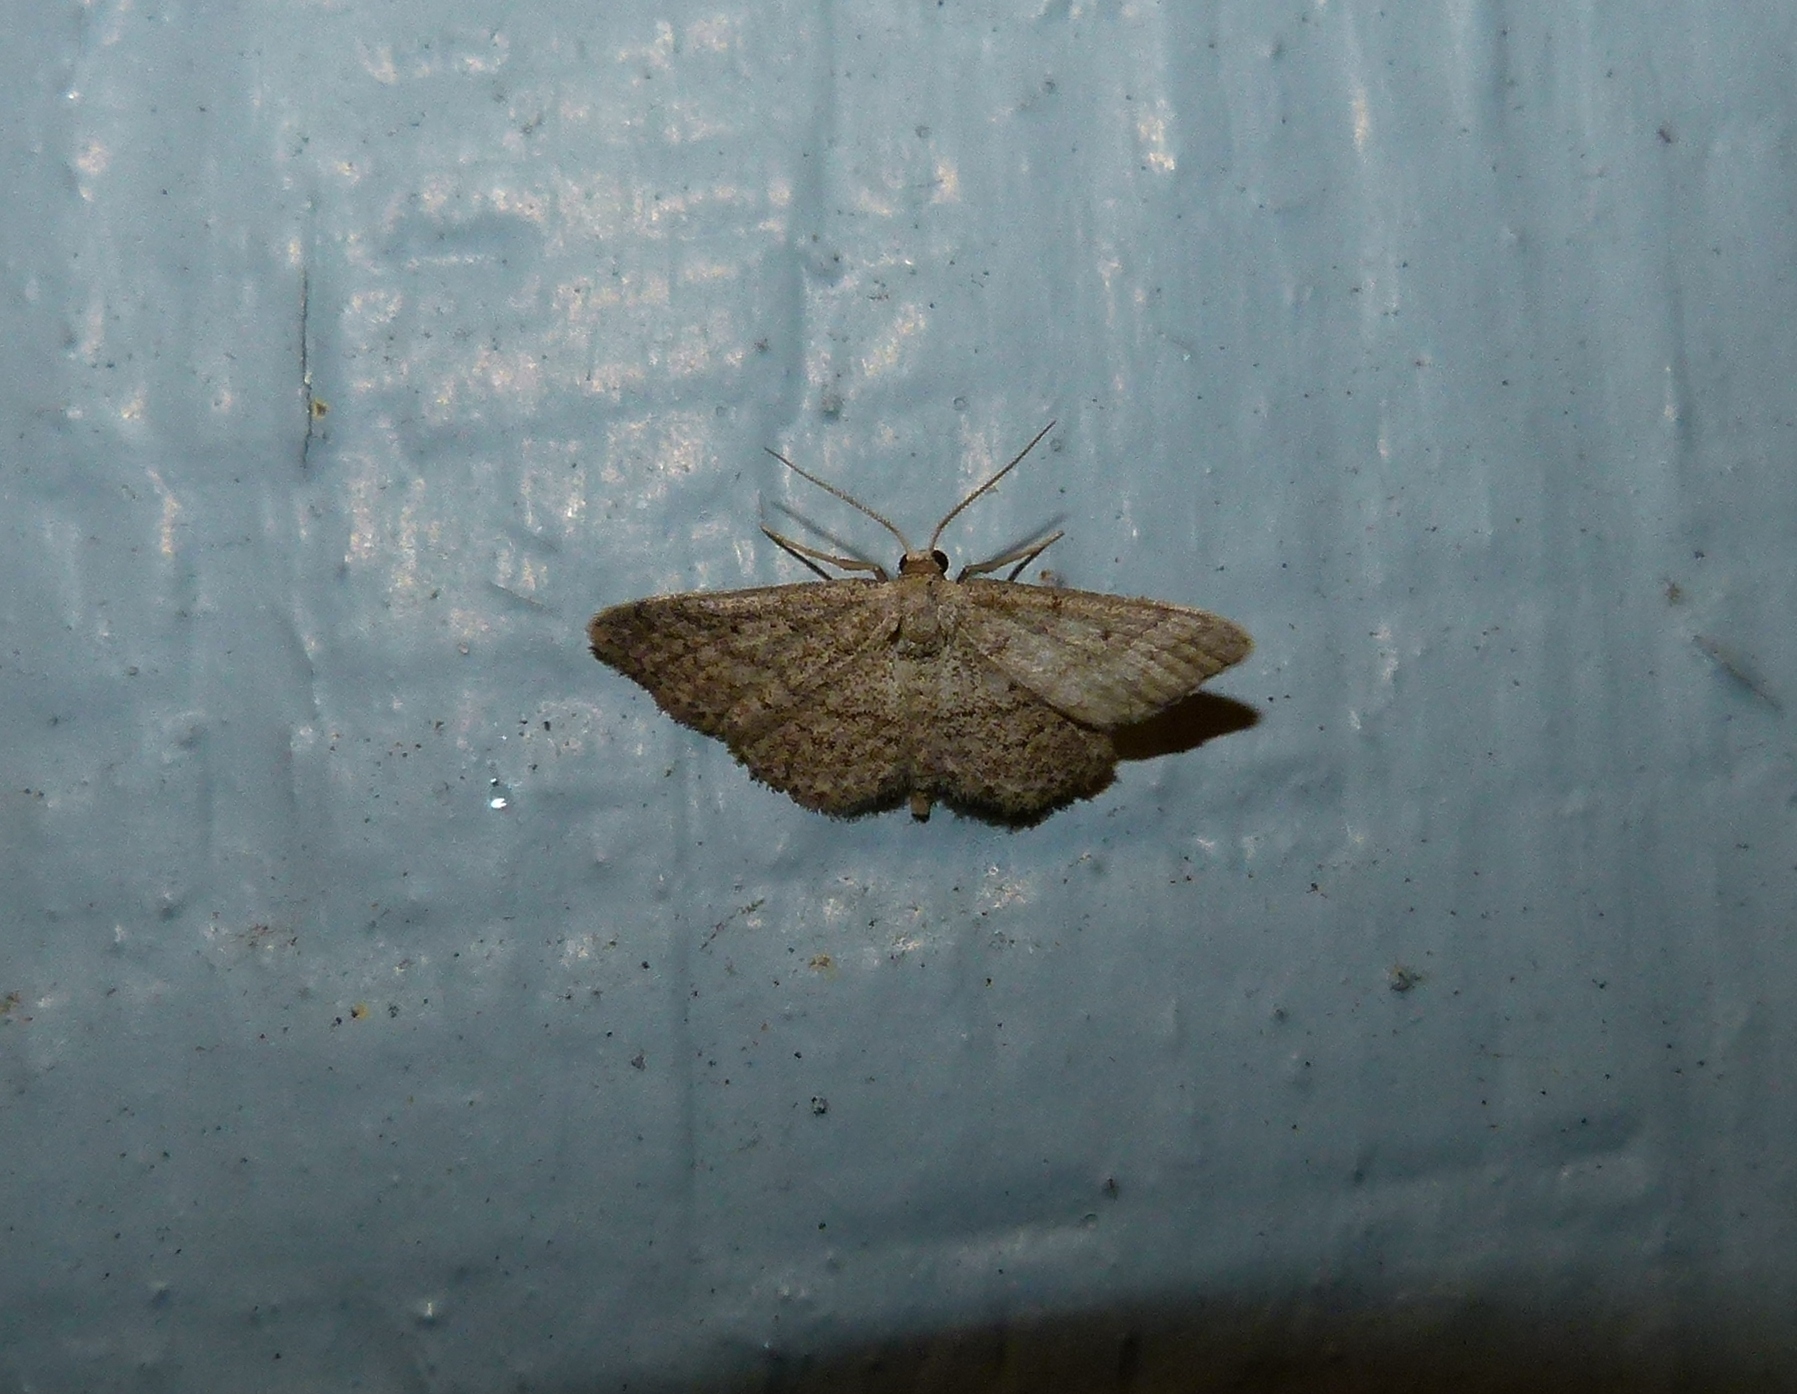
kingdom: Animalia
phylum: Arthropoda
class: Insecta
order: Lepidoptera
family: Geometridae
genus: Lobocleta
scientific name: Lobocleta ossularia
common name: Drab brown wave
